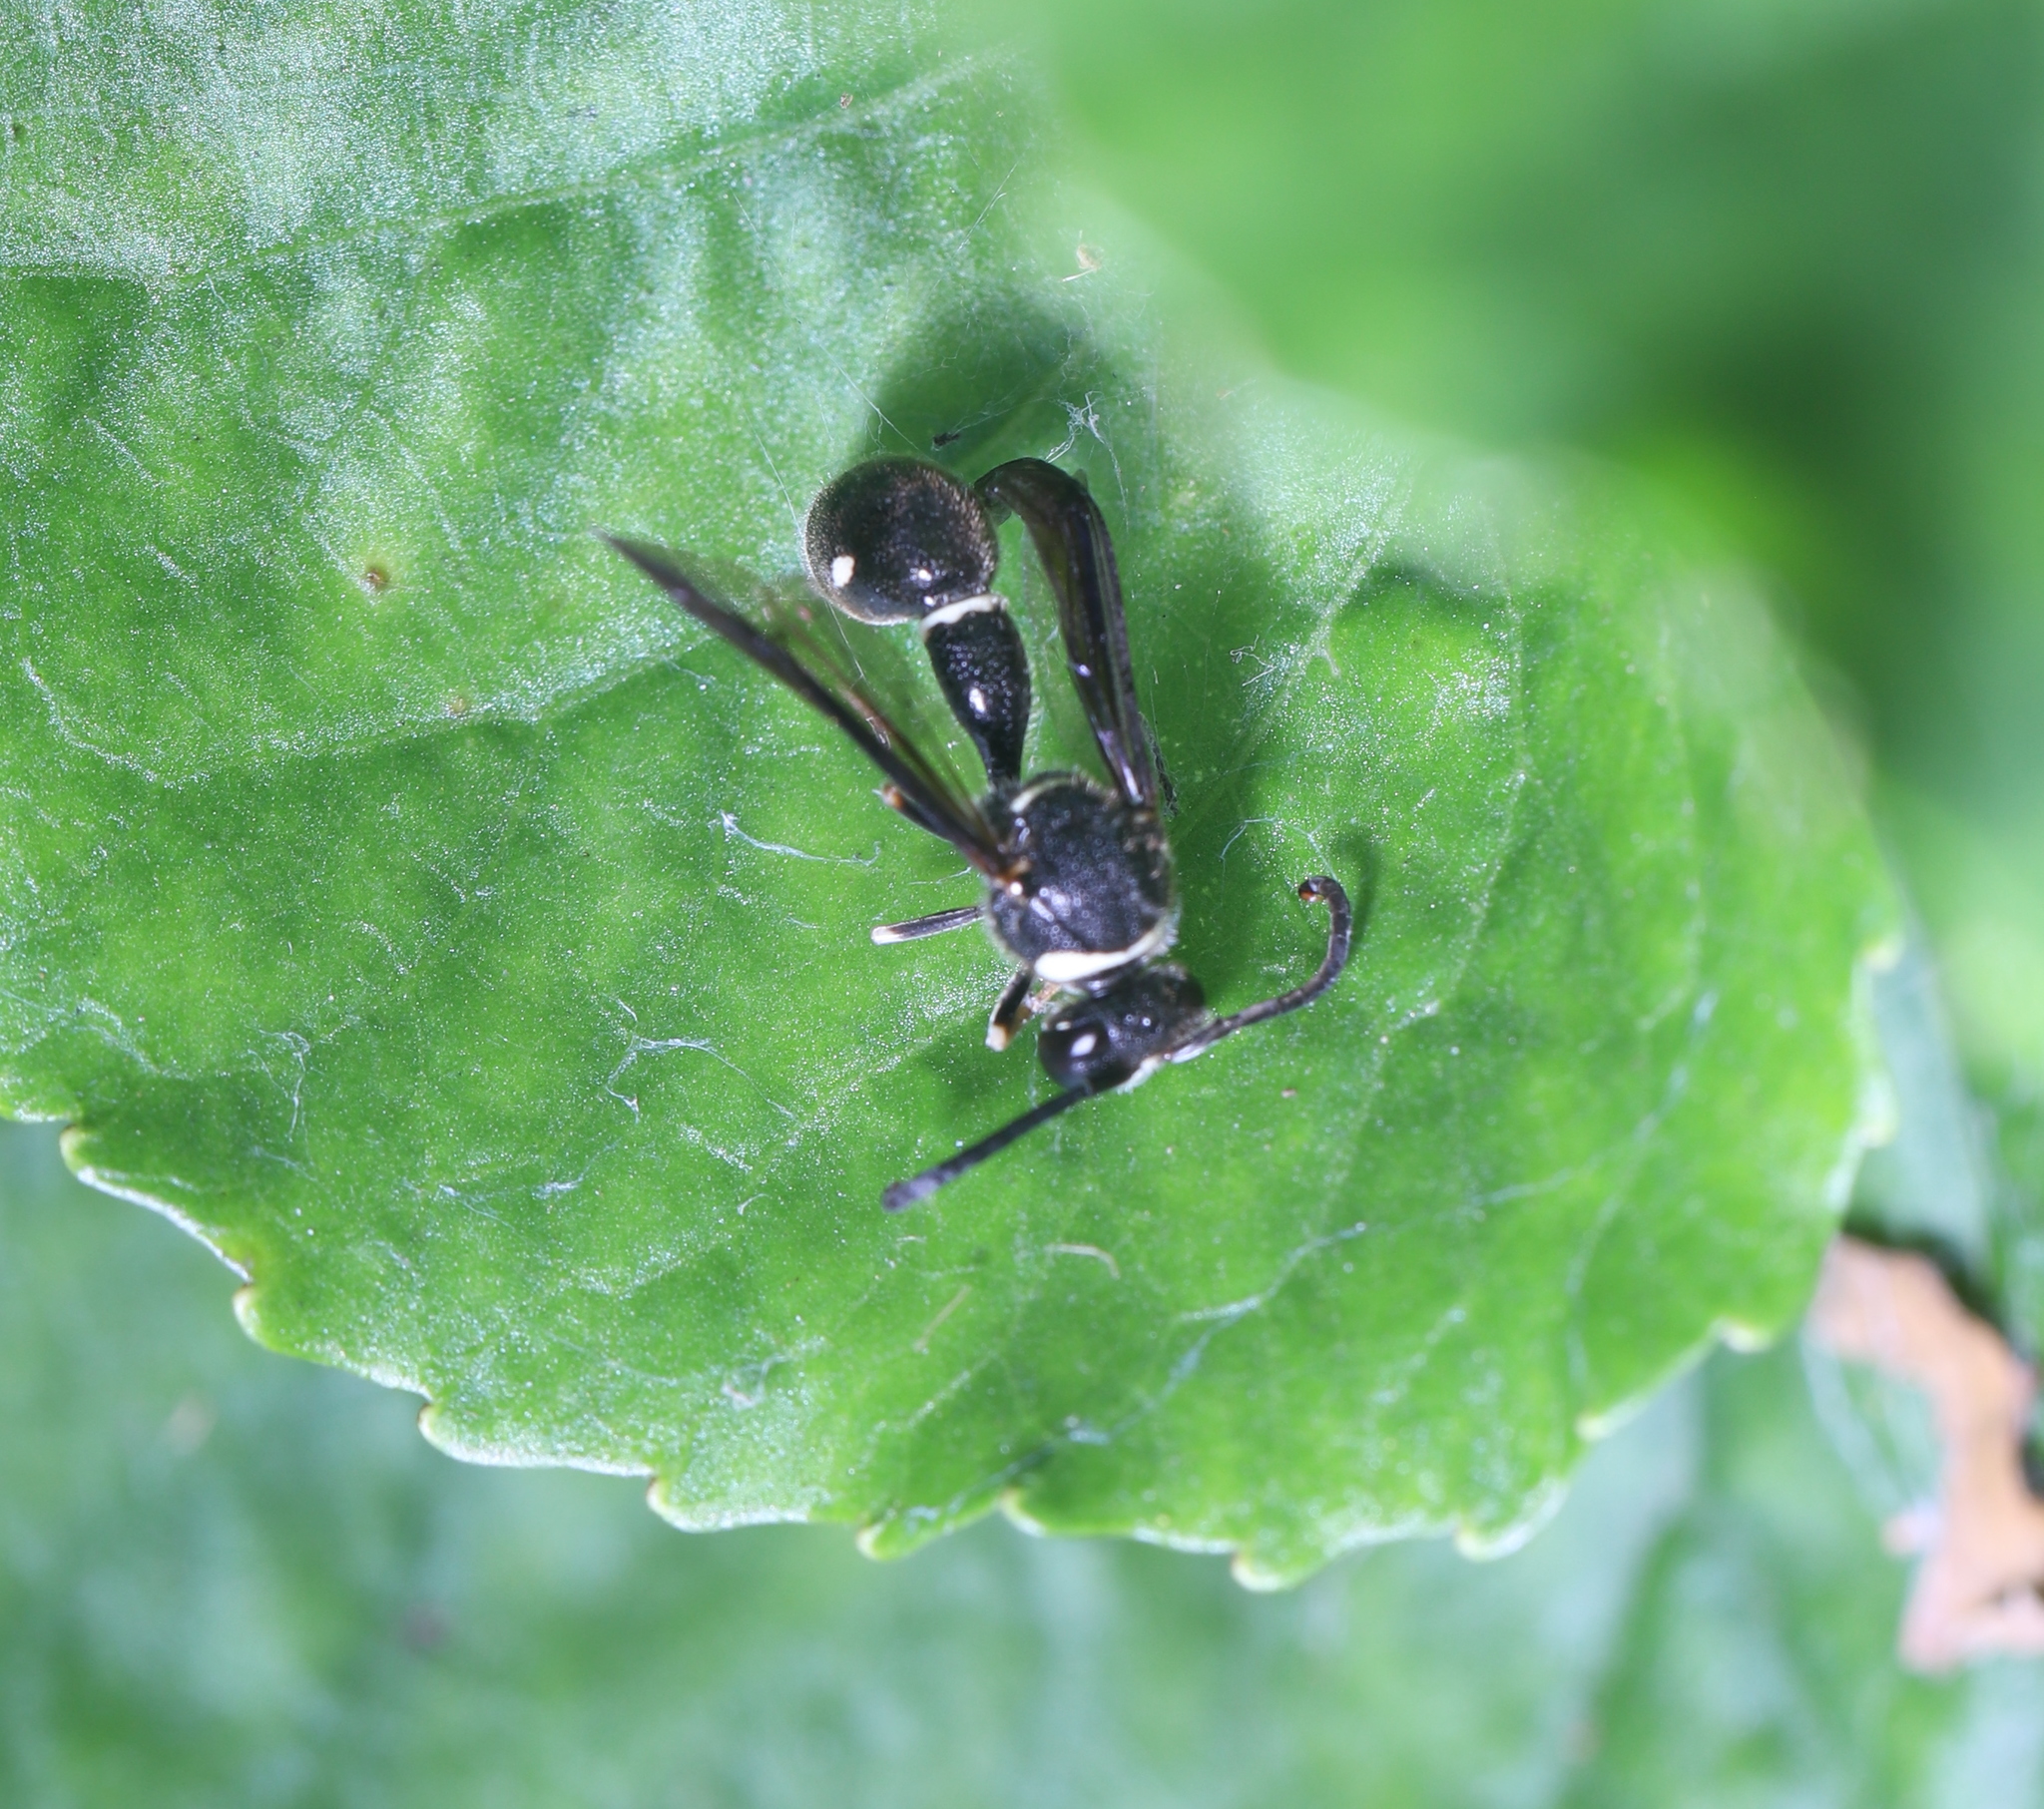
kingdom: Animalia
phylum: Arthropoda
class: Insecta
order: Hymenoptera
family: Vespidae
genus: Eumenes
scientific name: Eumenes fraternus
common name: Fraternal potter wasp
